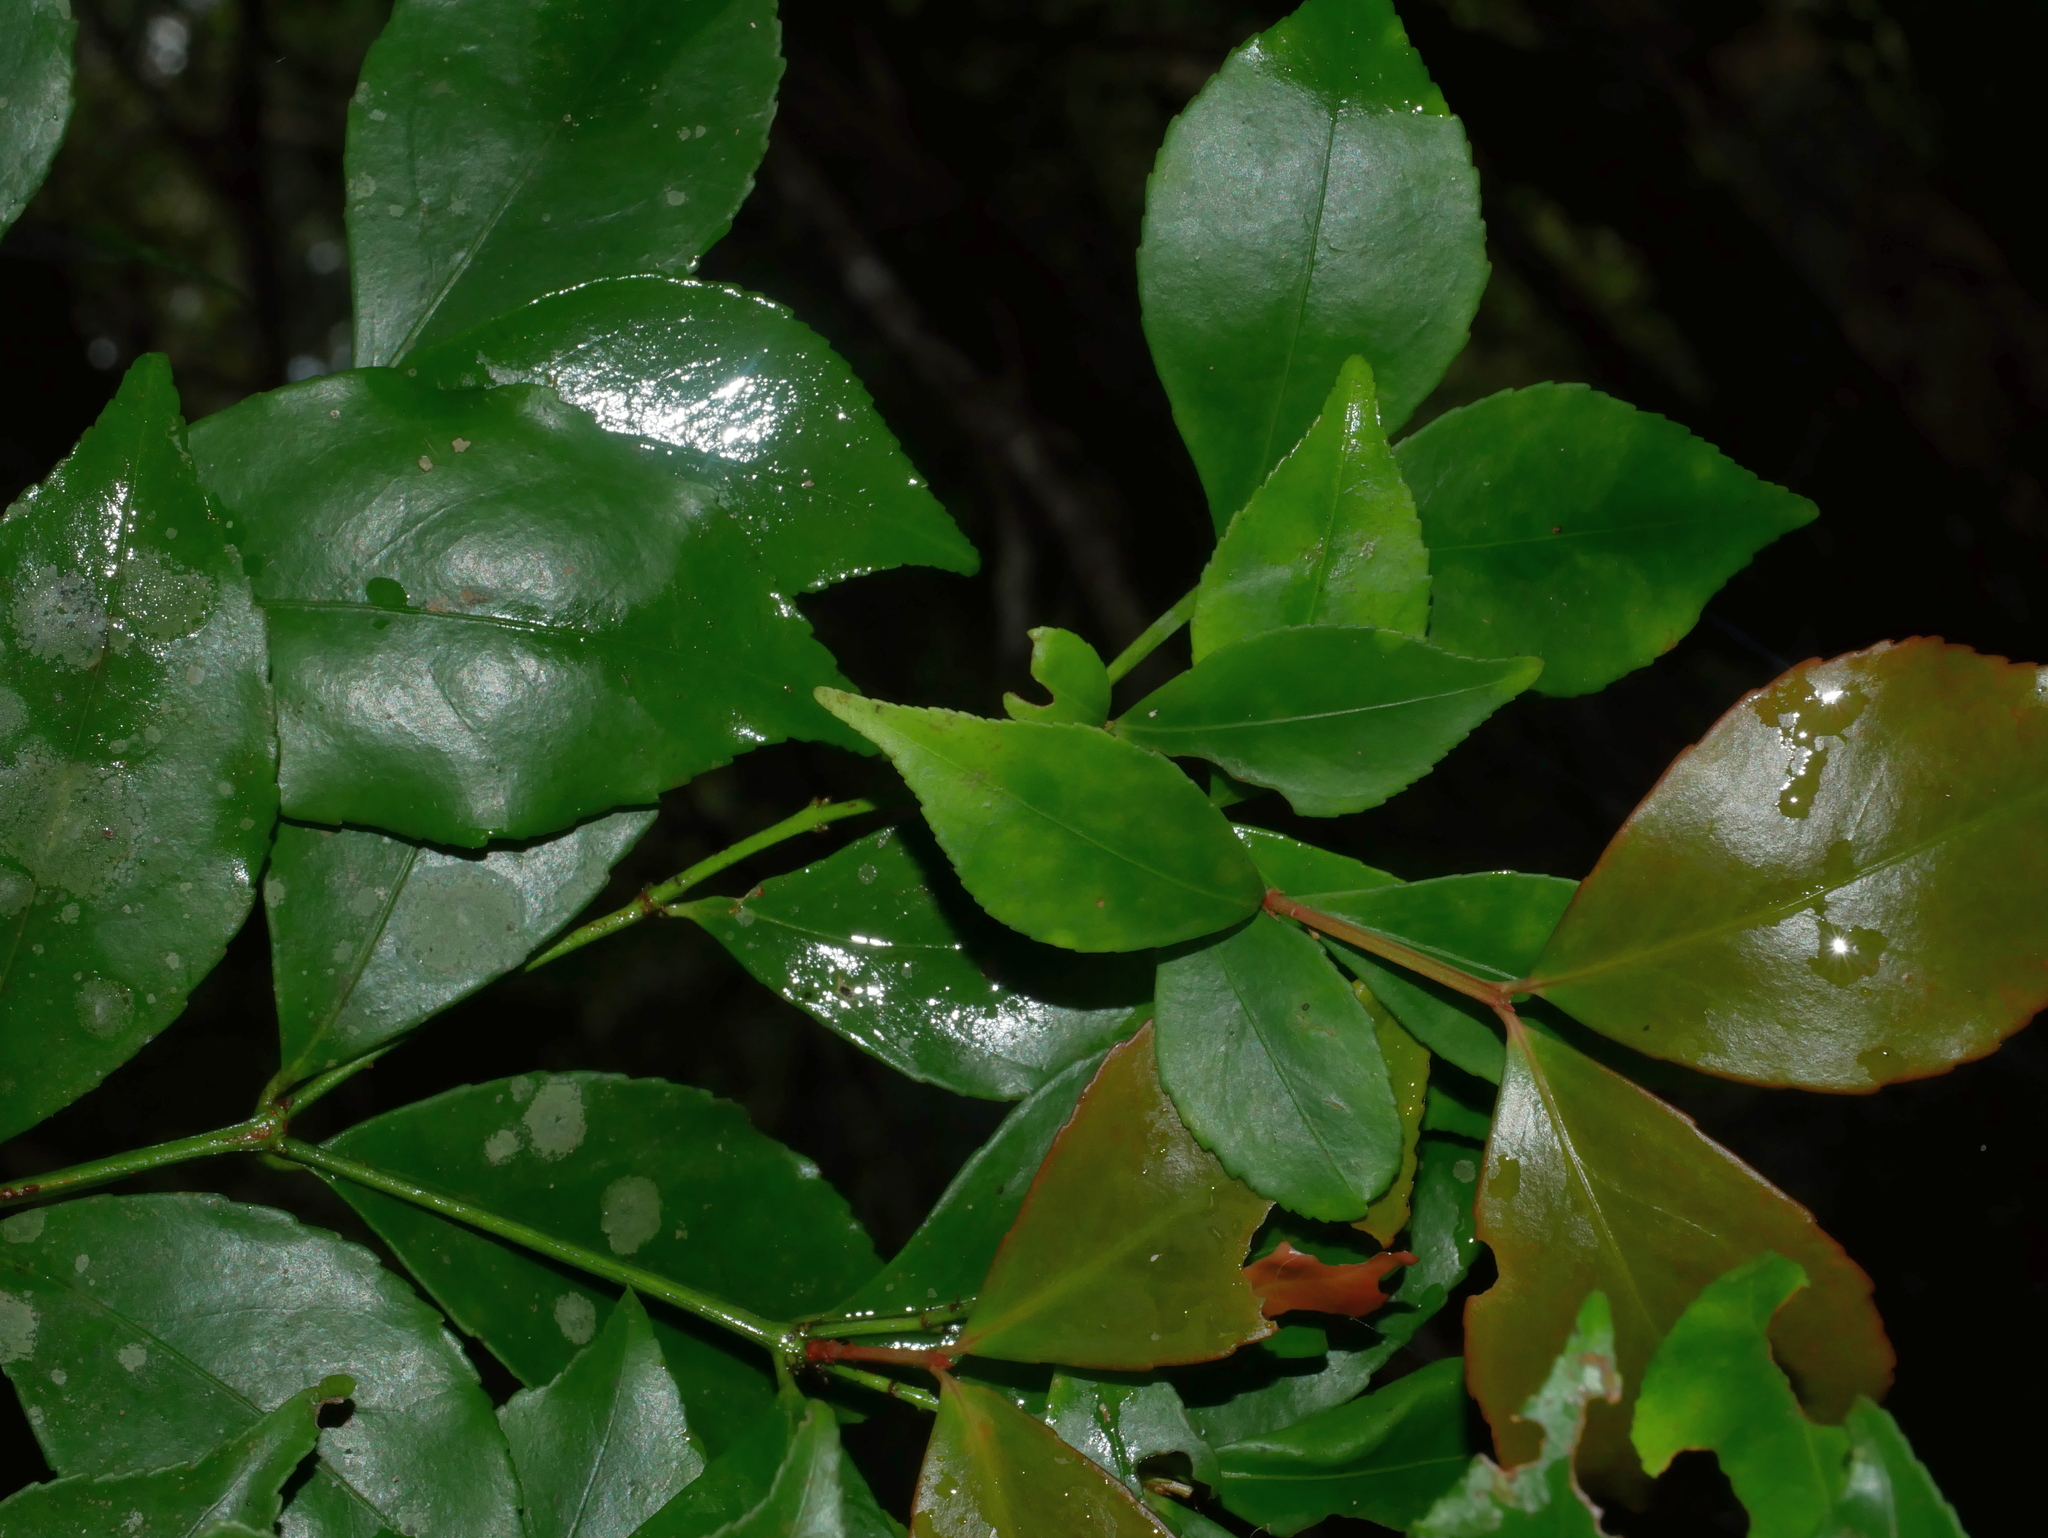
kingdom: Plantae
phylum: Tracheophyta
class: Magnoliopsida
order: Celastrales
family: Celastraceae
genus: Euonymus
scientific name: Euonymus tashiroi
